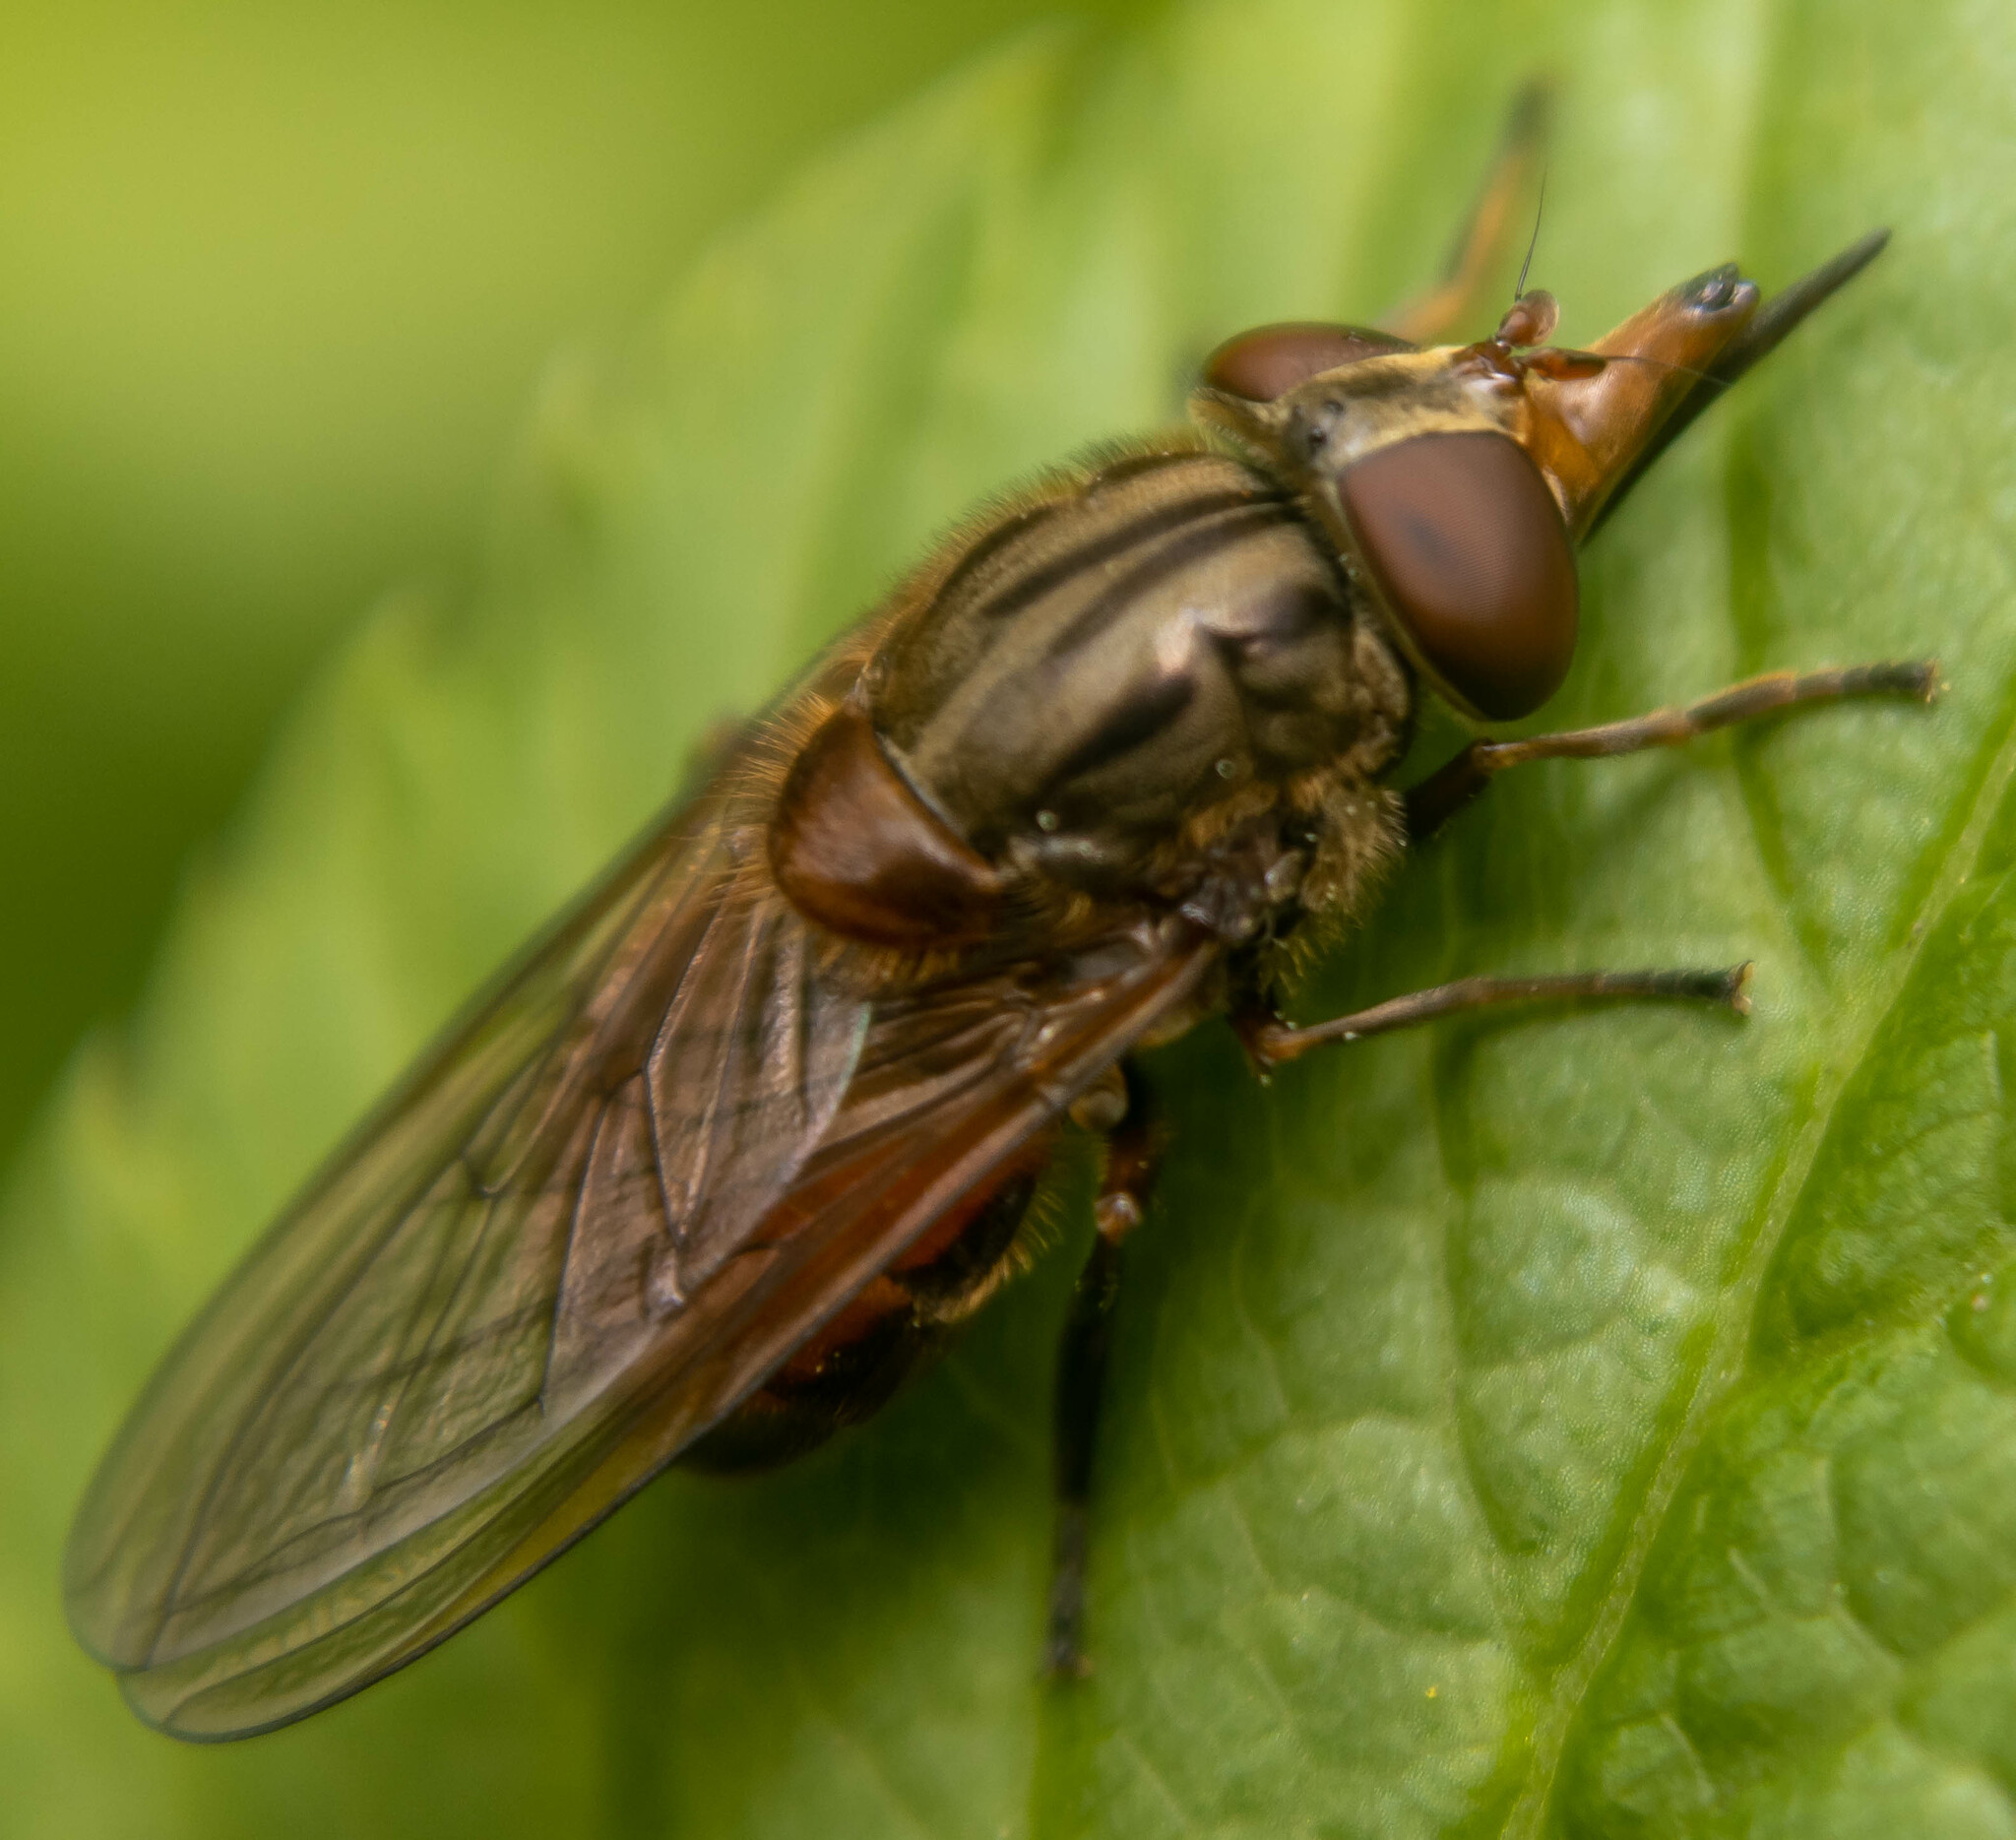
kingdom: Animalia
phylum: Arthropoda
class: Insecta
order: Diptera
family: Syrphidae
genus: Rhingia
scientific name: Rhingia campestris
